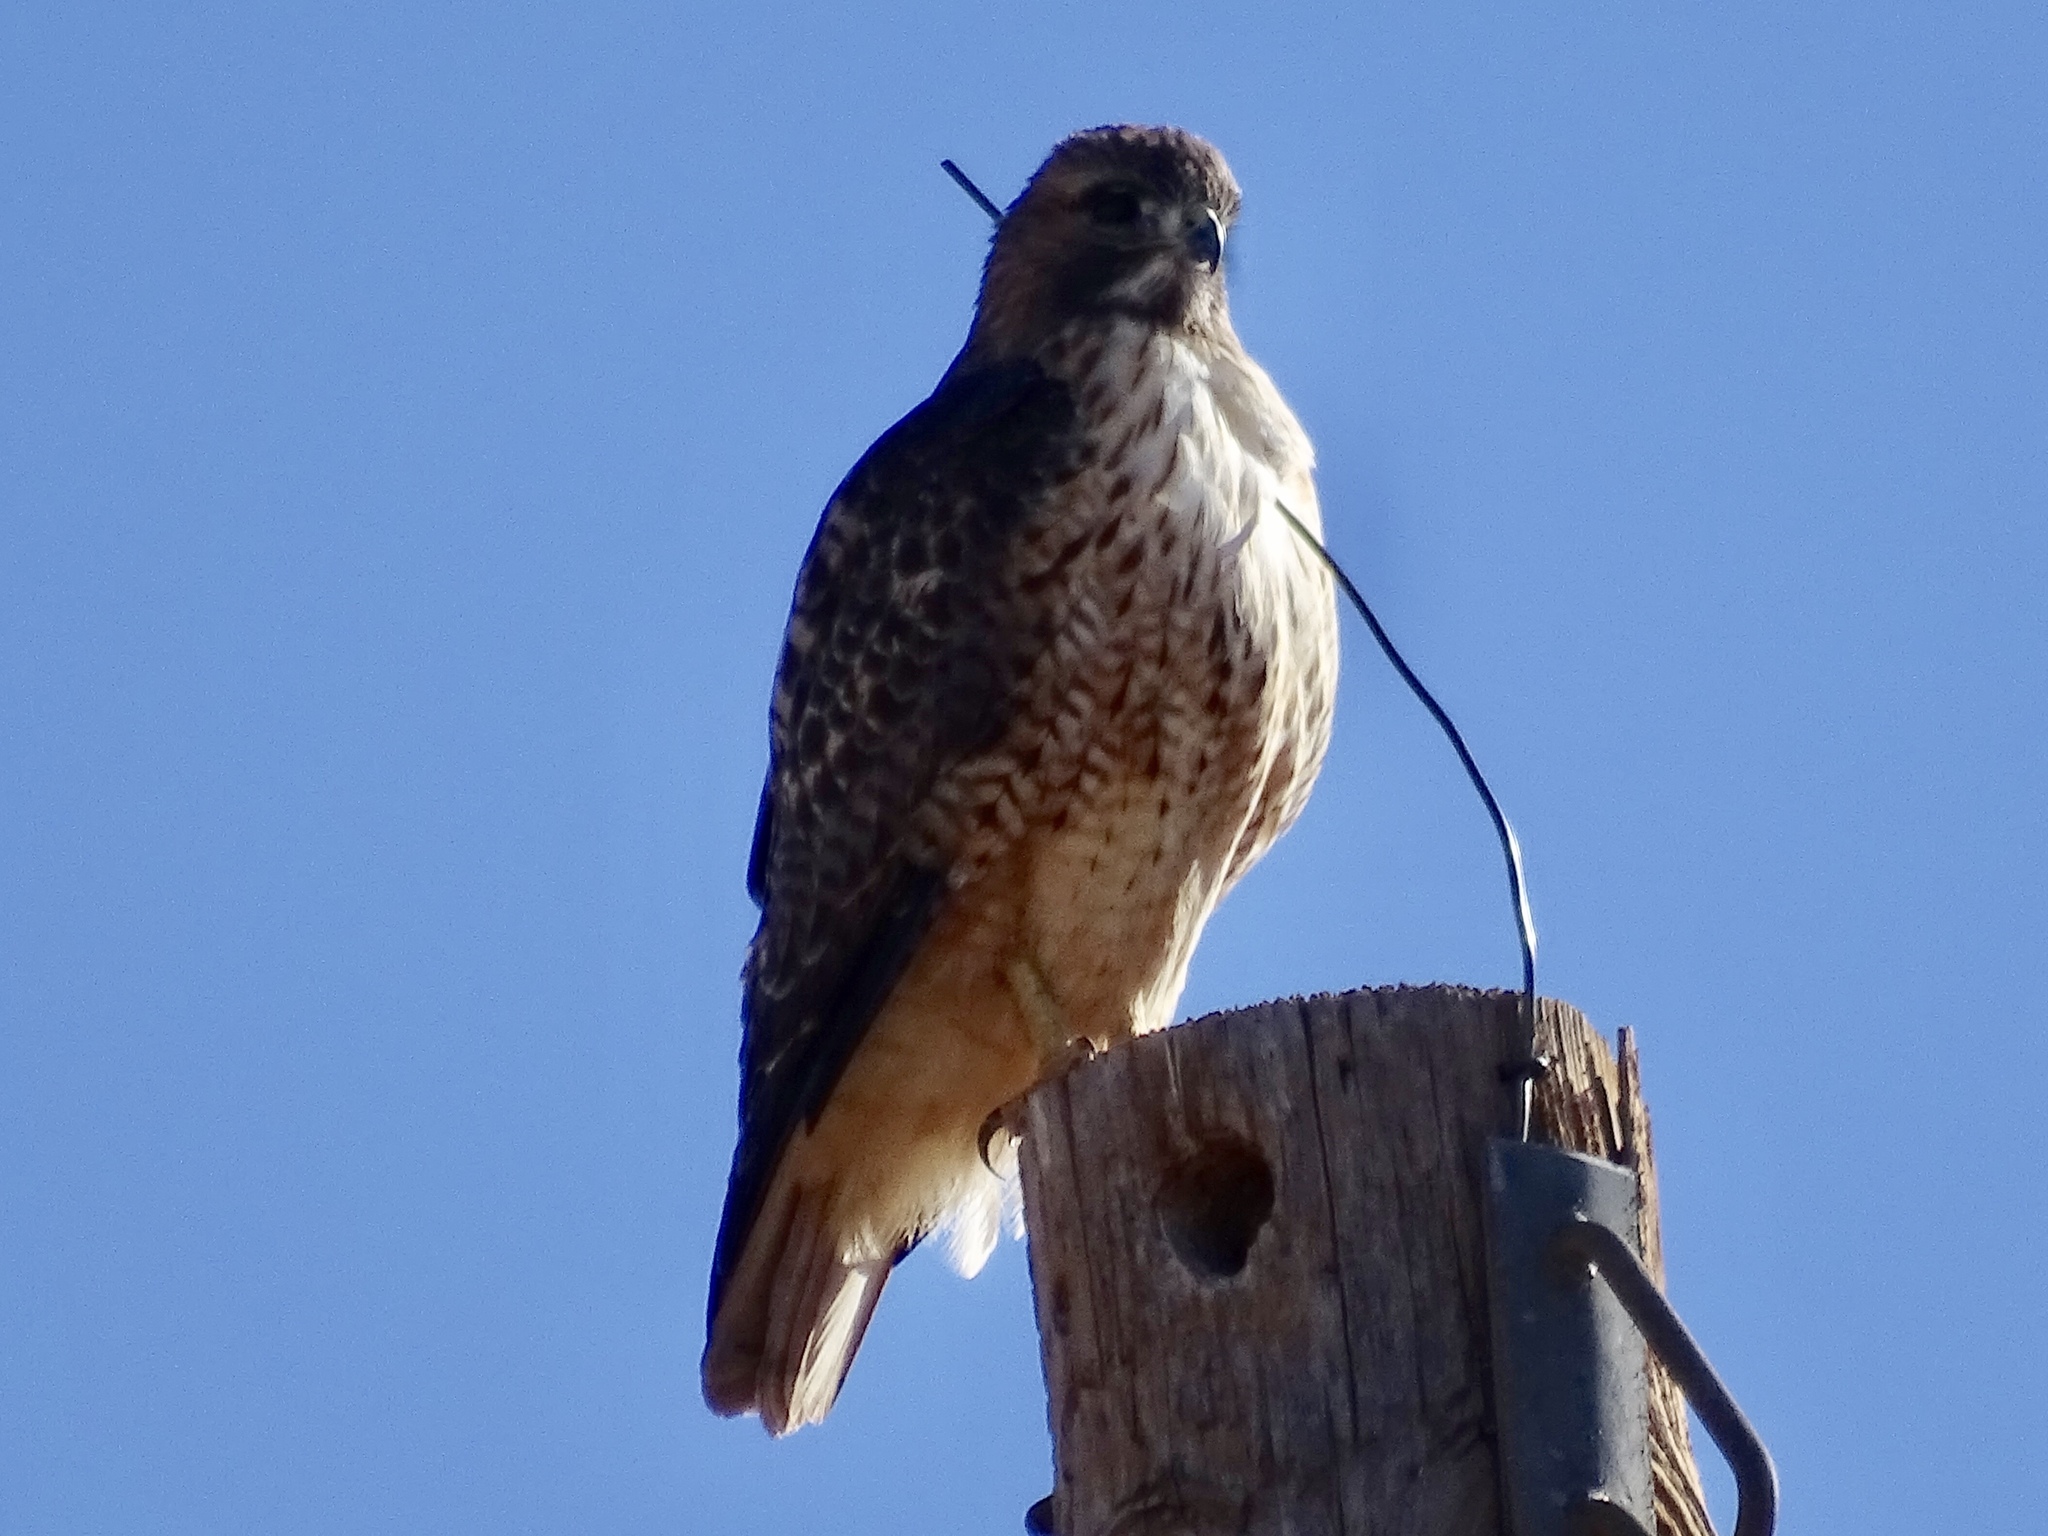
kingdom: Animalia
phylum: Chordata
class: Aves
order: Accipitriformes
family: Accipitridae
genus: Buteo
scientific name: Buteo jamaicensis
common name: Red-tailed hawk
